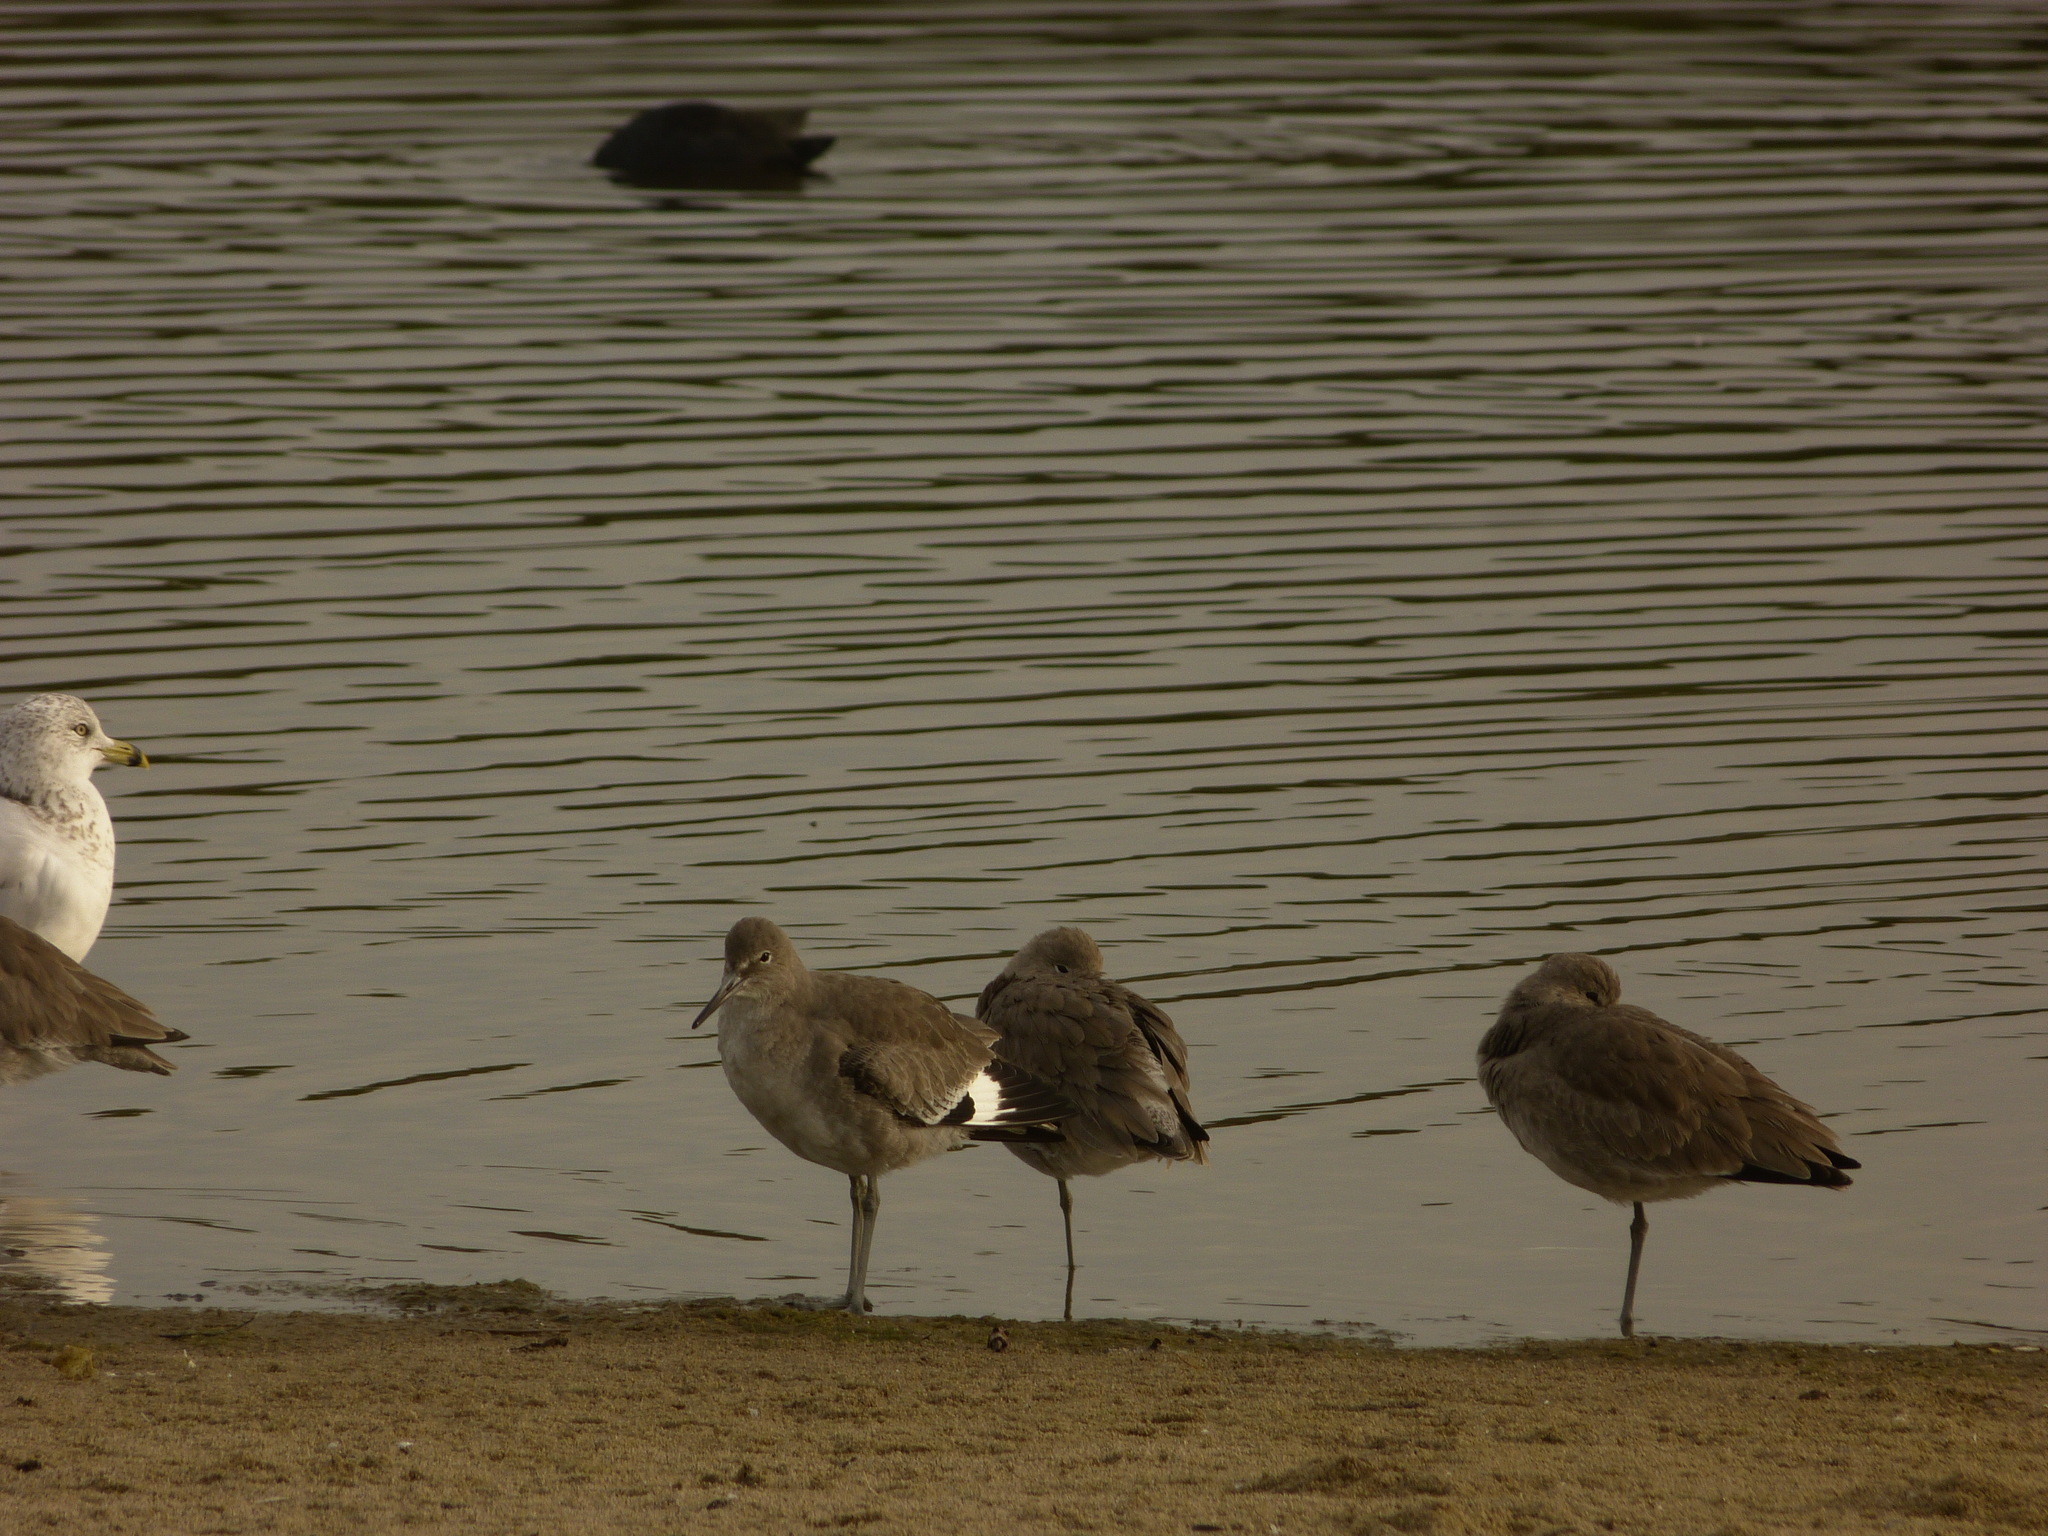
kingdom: Animalia
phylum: Chordata
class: Aves
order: Charadriiformes
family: Scolopacidae
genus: Tringa
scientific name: Tringa semipalmata
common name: Willet
